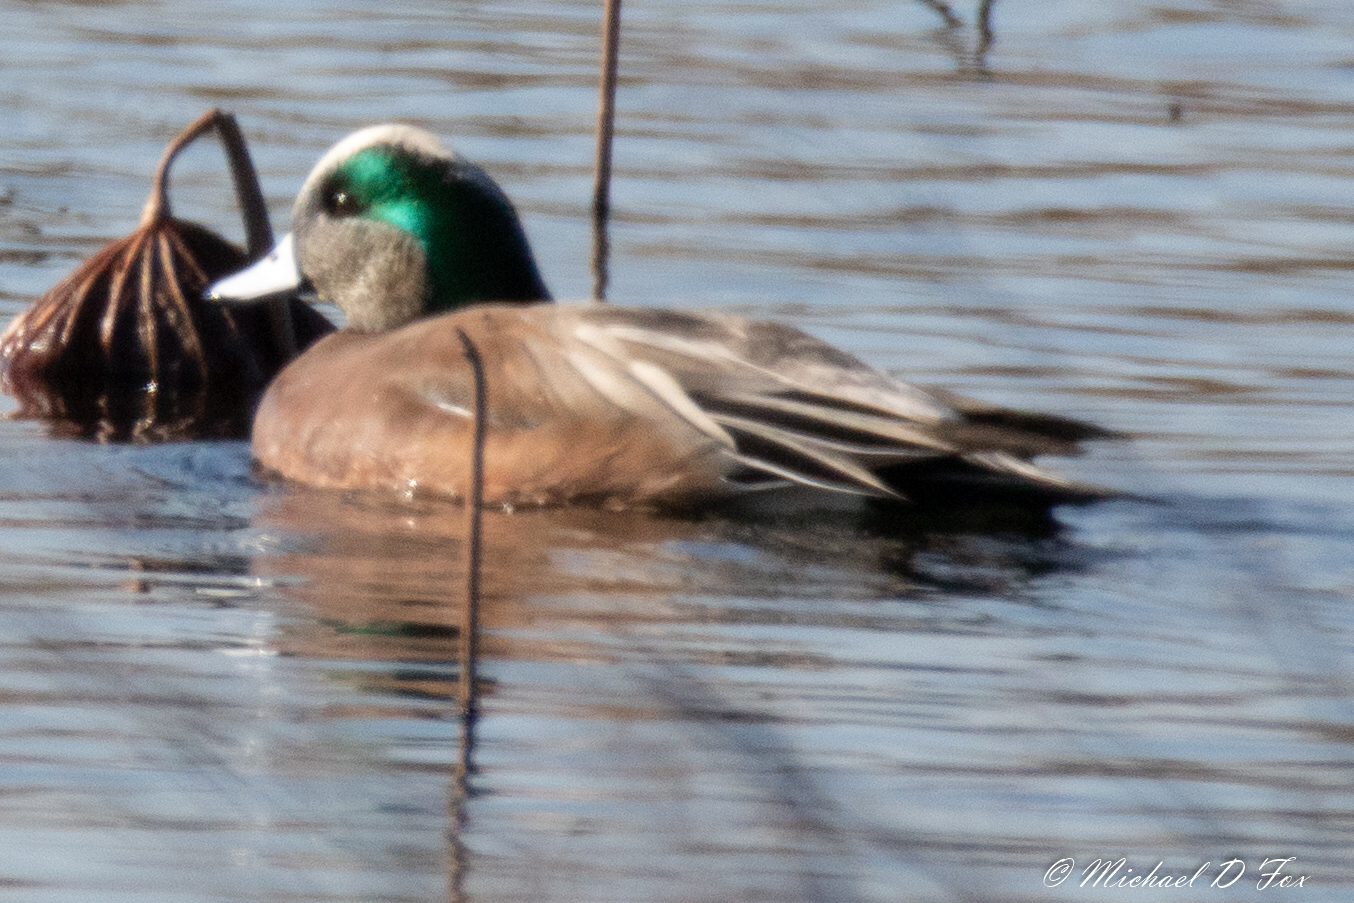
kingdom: Animalia
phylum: Chordata
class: Aves
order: Anseriformes
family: Anatidae
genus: Mareca
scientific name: Mareca americana
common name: American wigeon
